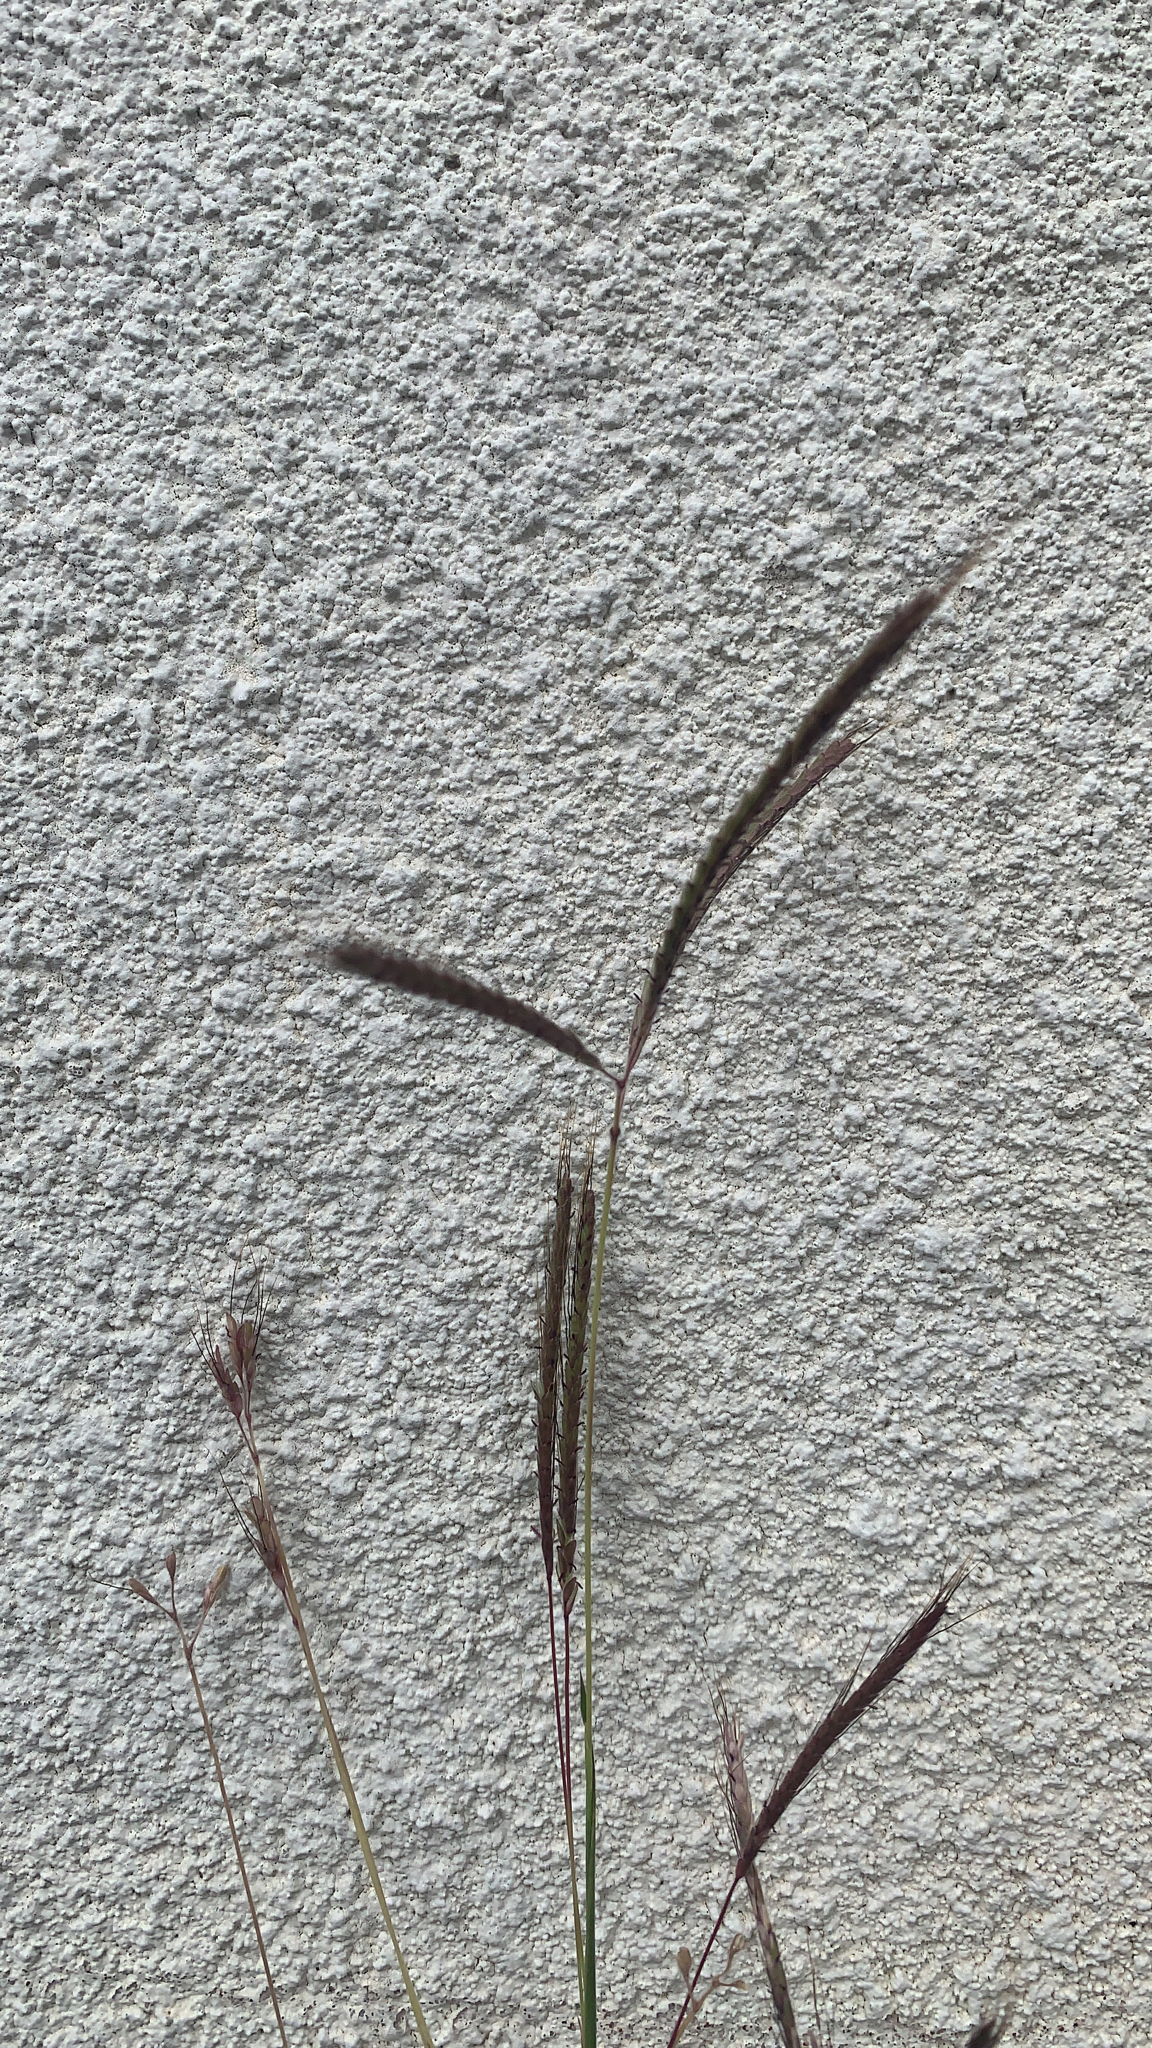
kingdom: Plantae
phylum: Tracheophyta
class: Liliopsida
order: Poales
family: Poaceae
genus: Dichanthium
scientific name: Dichanthium aristatum
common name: Angleton bluestem
